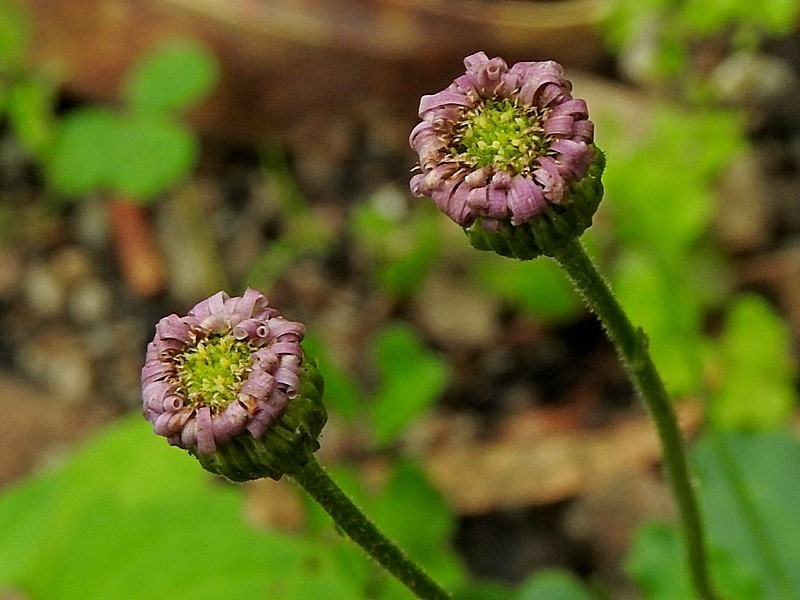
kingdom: Plantae
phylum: Tracheophyta
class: Magnoliopsida
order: Asterales
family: Asteraceae
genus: Lagenophora
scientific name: Lagenophora stipitata
